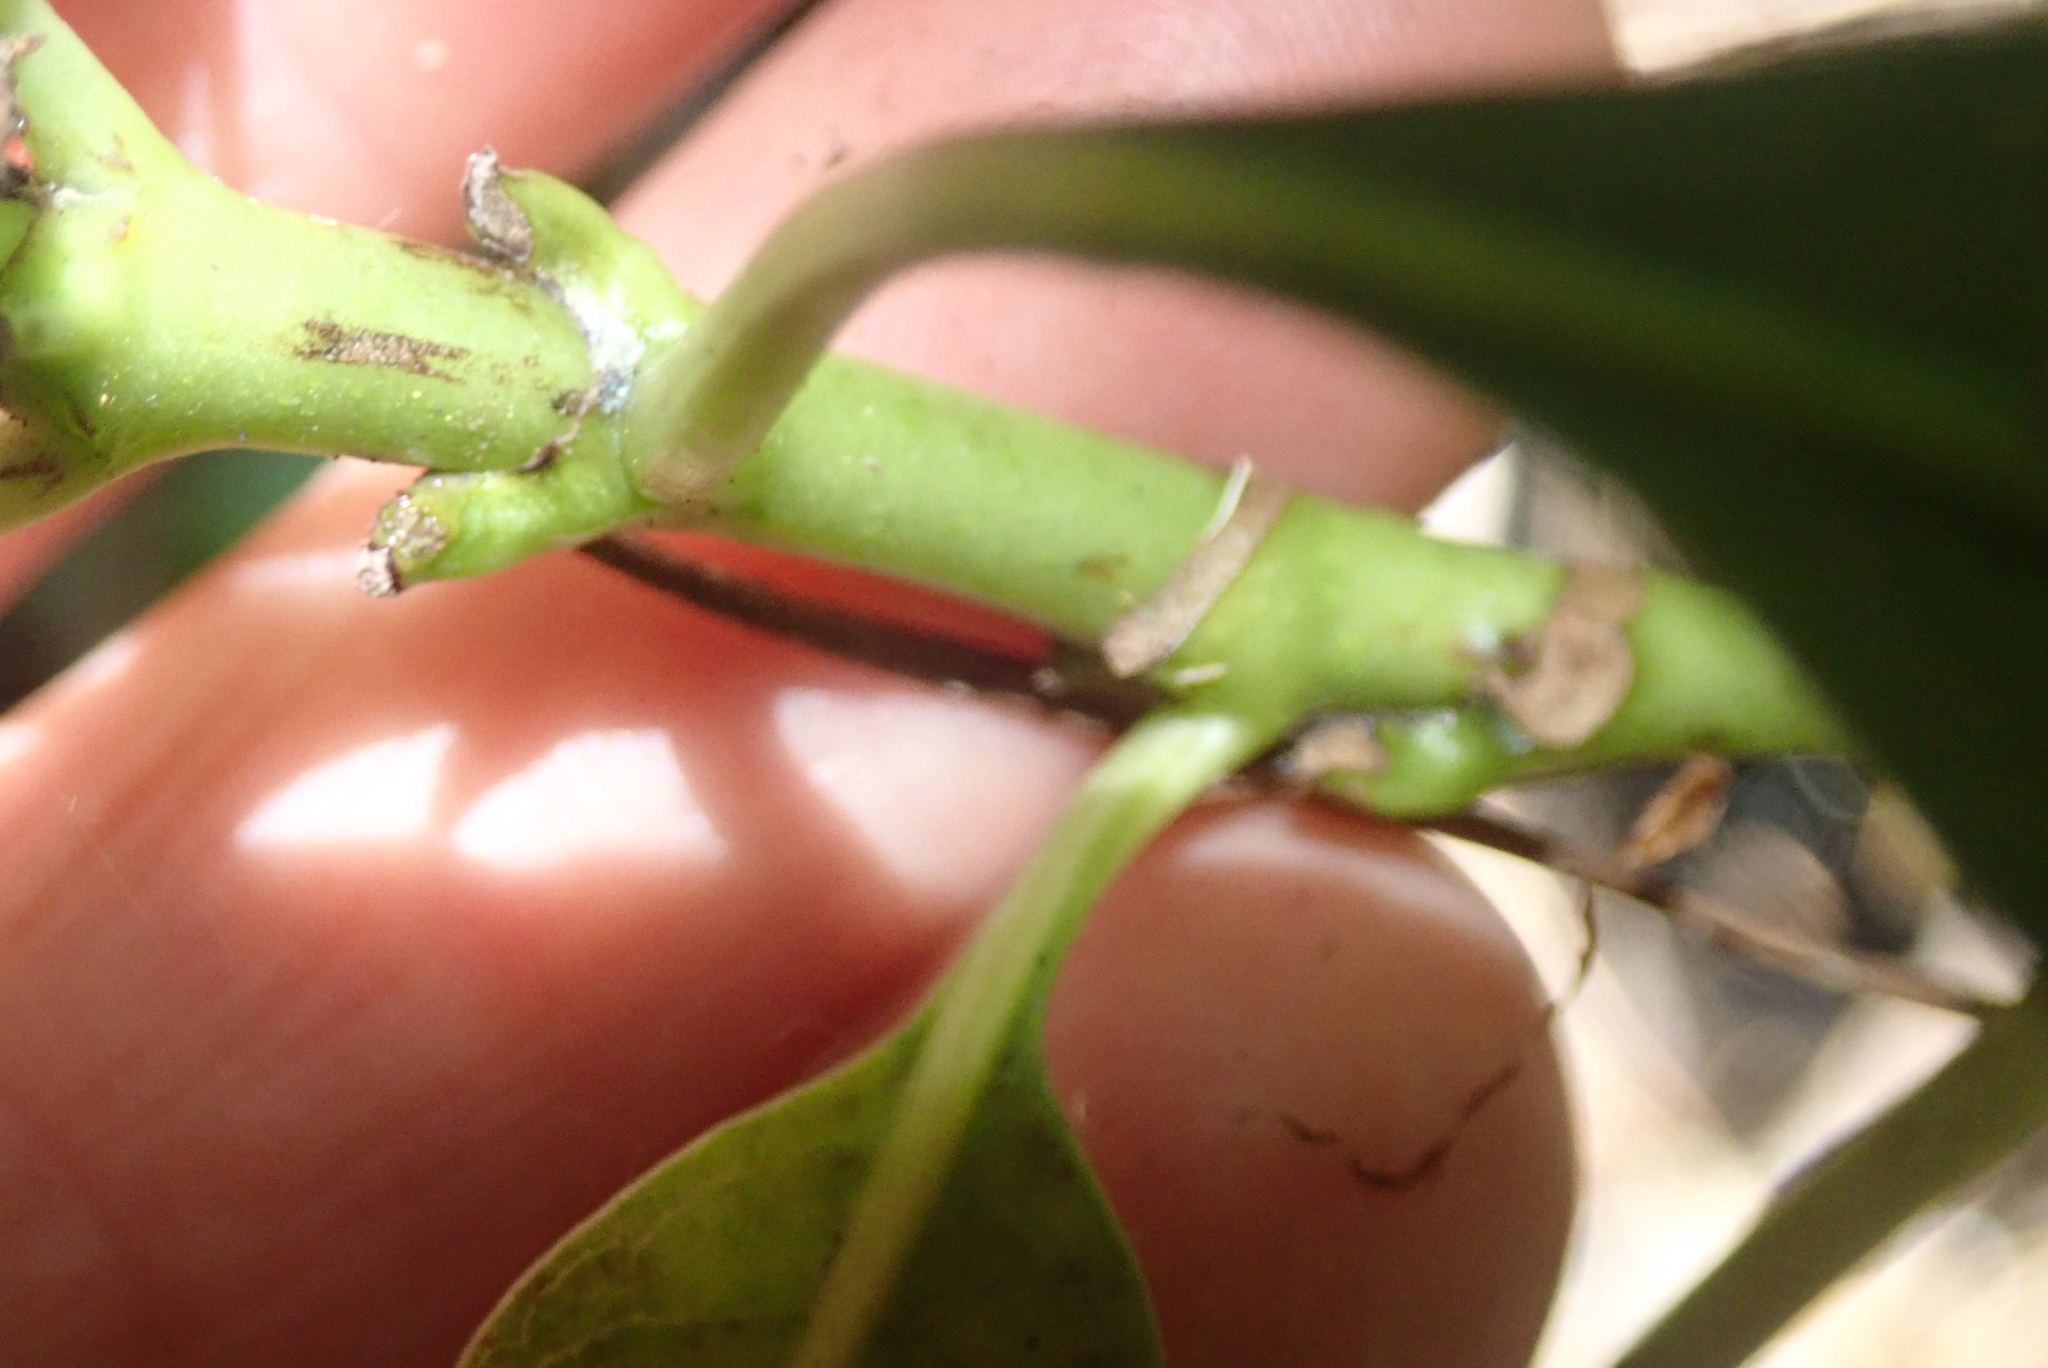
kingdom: Plantae
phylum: Tracheophyta
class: Magnoliopsida
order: Gentianales
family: Rubiaceae
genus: Coprosma
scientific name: Coprosma autumnalis
